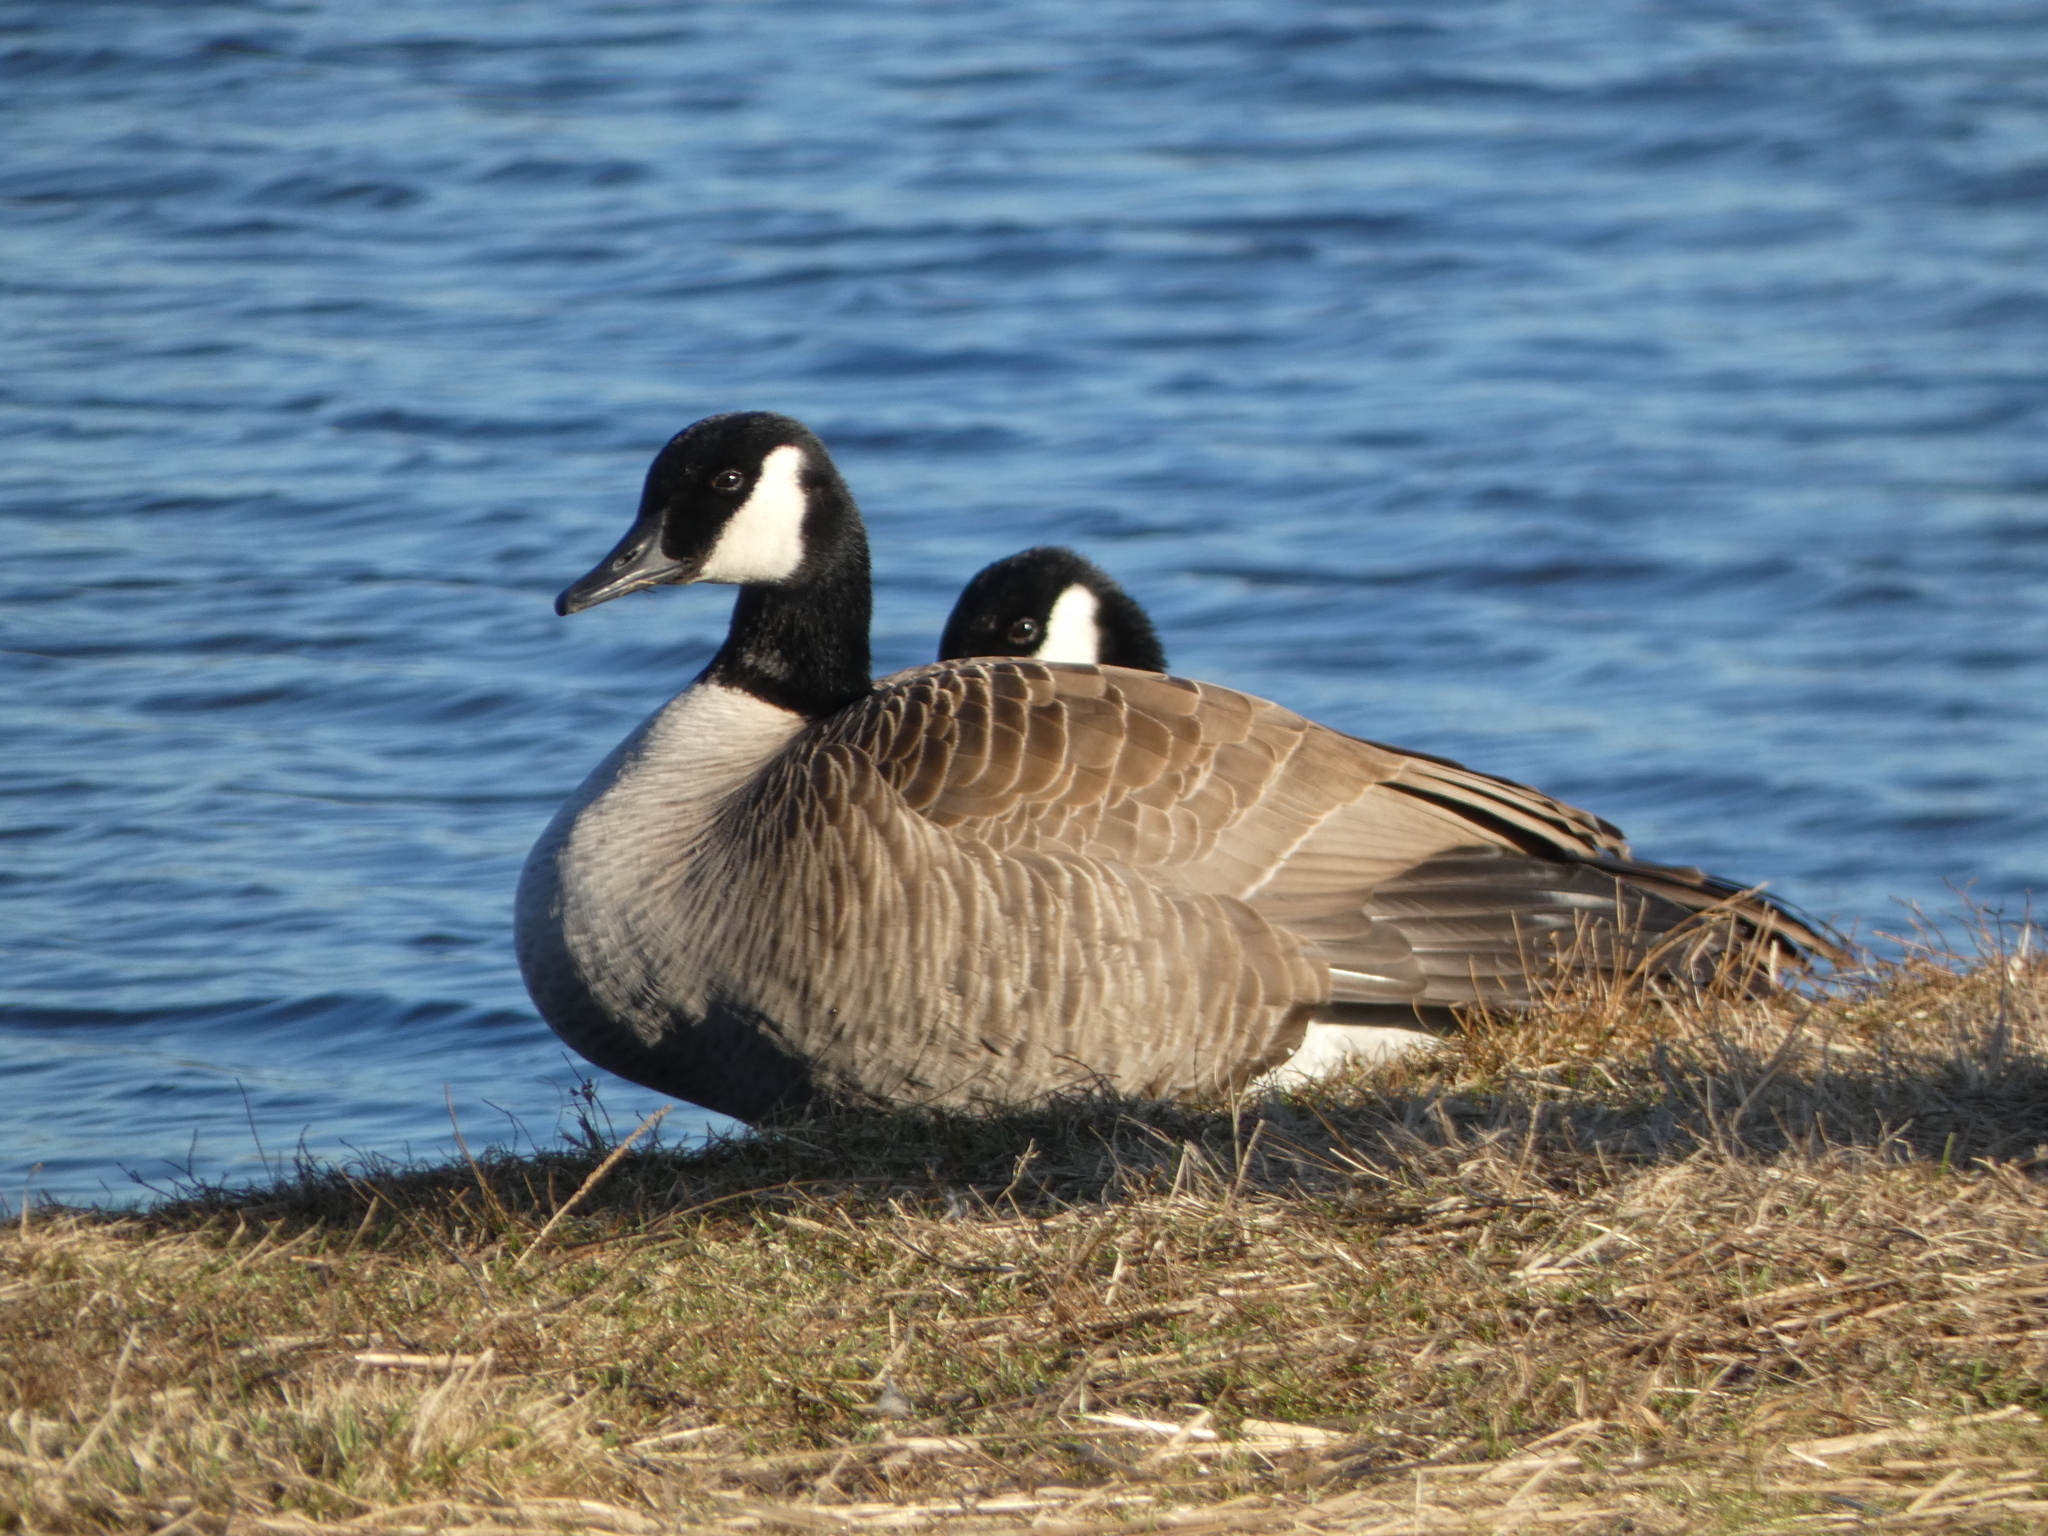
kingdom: Animalia
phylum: Chordata
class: Aves
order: Anseriformes
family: Anatidae
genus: Branta
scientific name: Branta canadensis
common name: Canada goose
